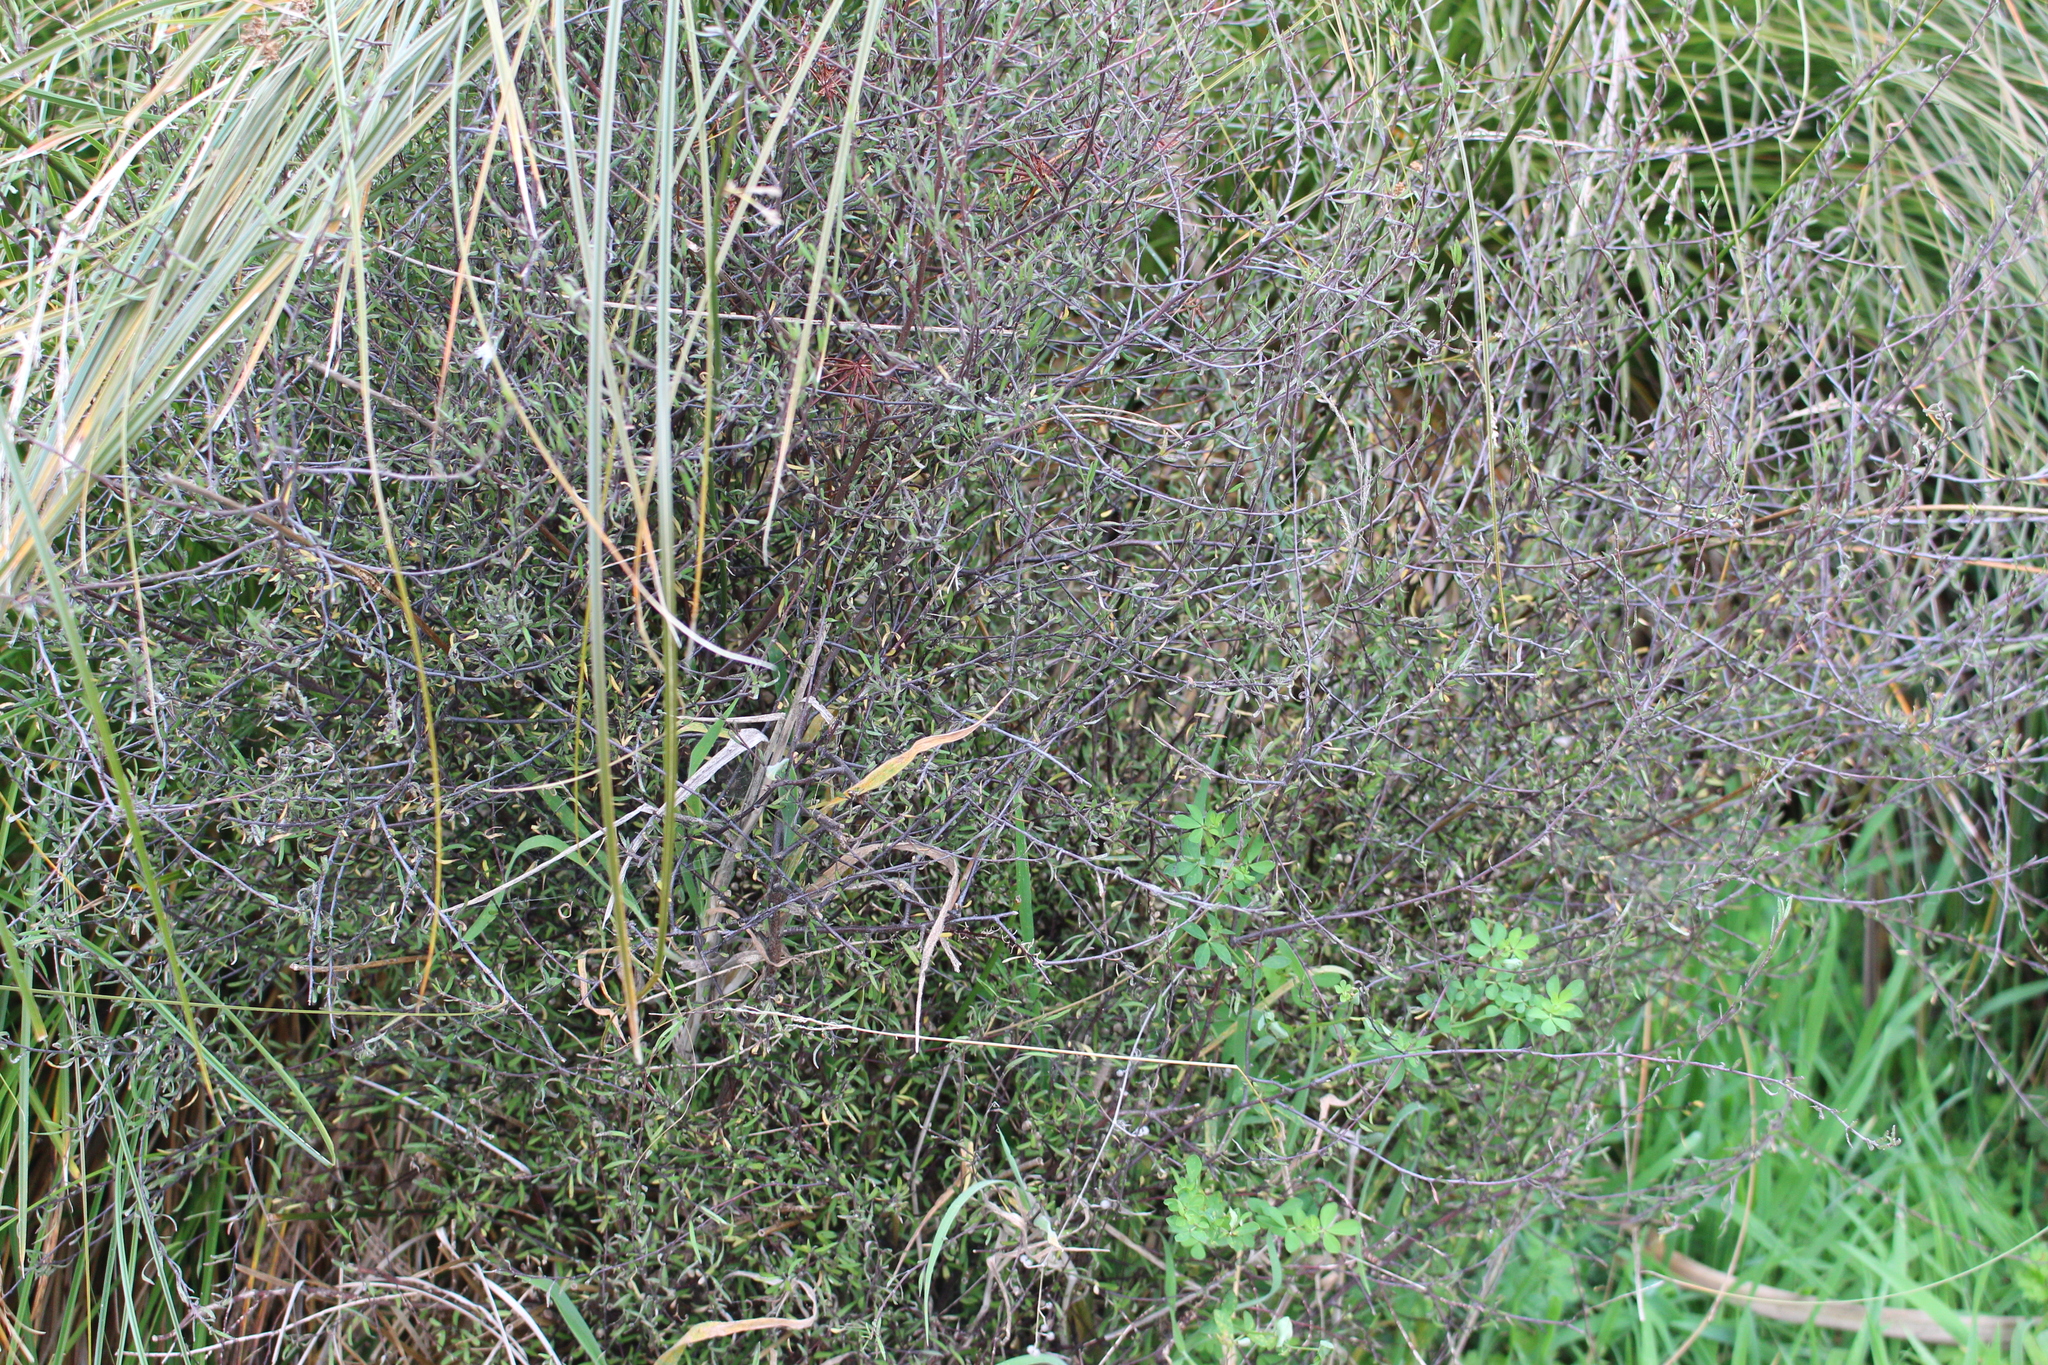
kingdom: Plantae
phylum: Tracheophyta
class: Magnoliopsida
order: Malvales
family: Malvaceae
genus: Plagianthus
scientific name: Plagianthus divaricatus
